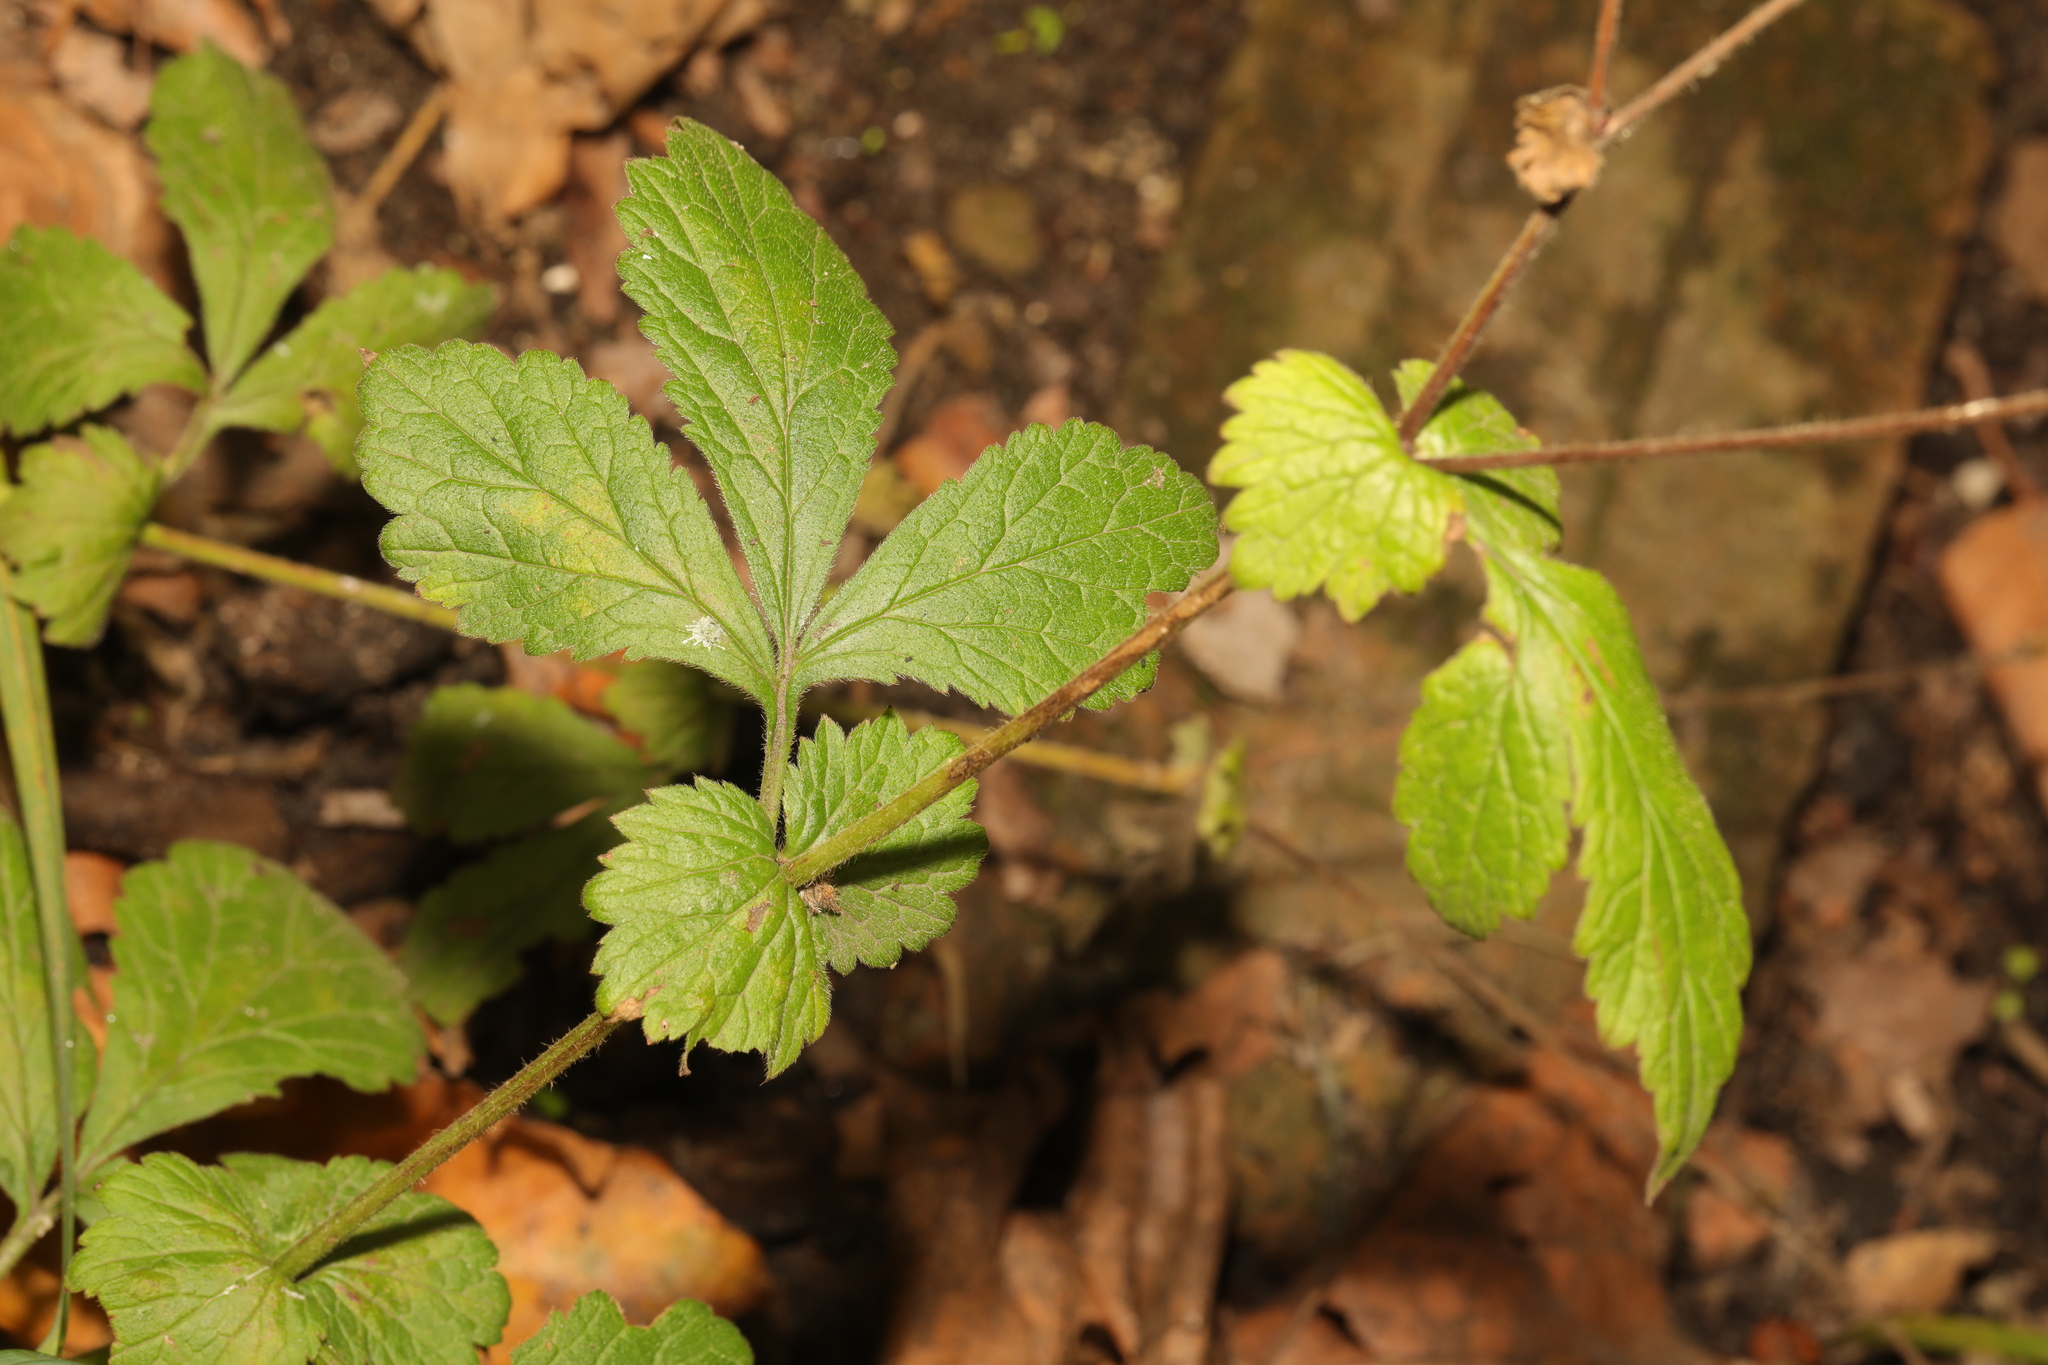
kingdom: Plantae
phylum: Tracheophyta
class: Magnoliopsida
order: Rosales
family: Rosaceae
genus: Geum
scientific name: Geum urbanum
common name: Wood avens
